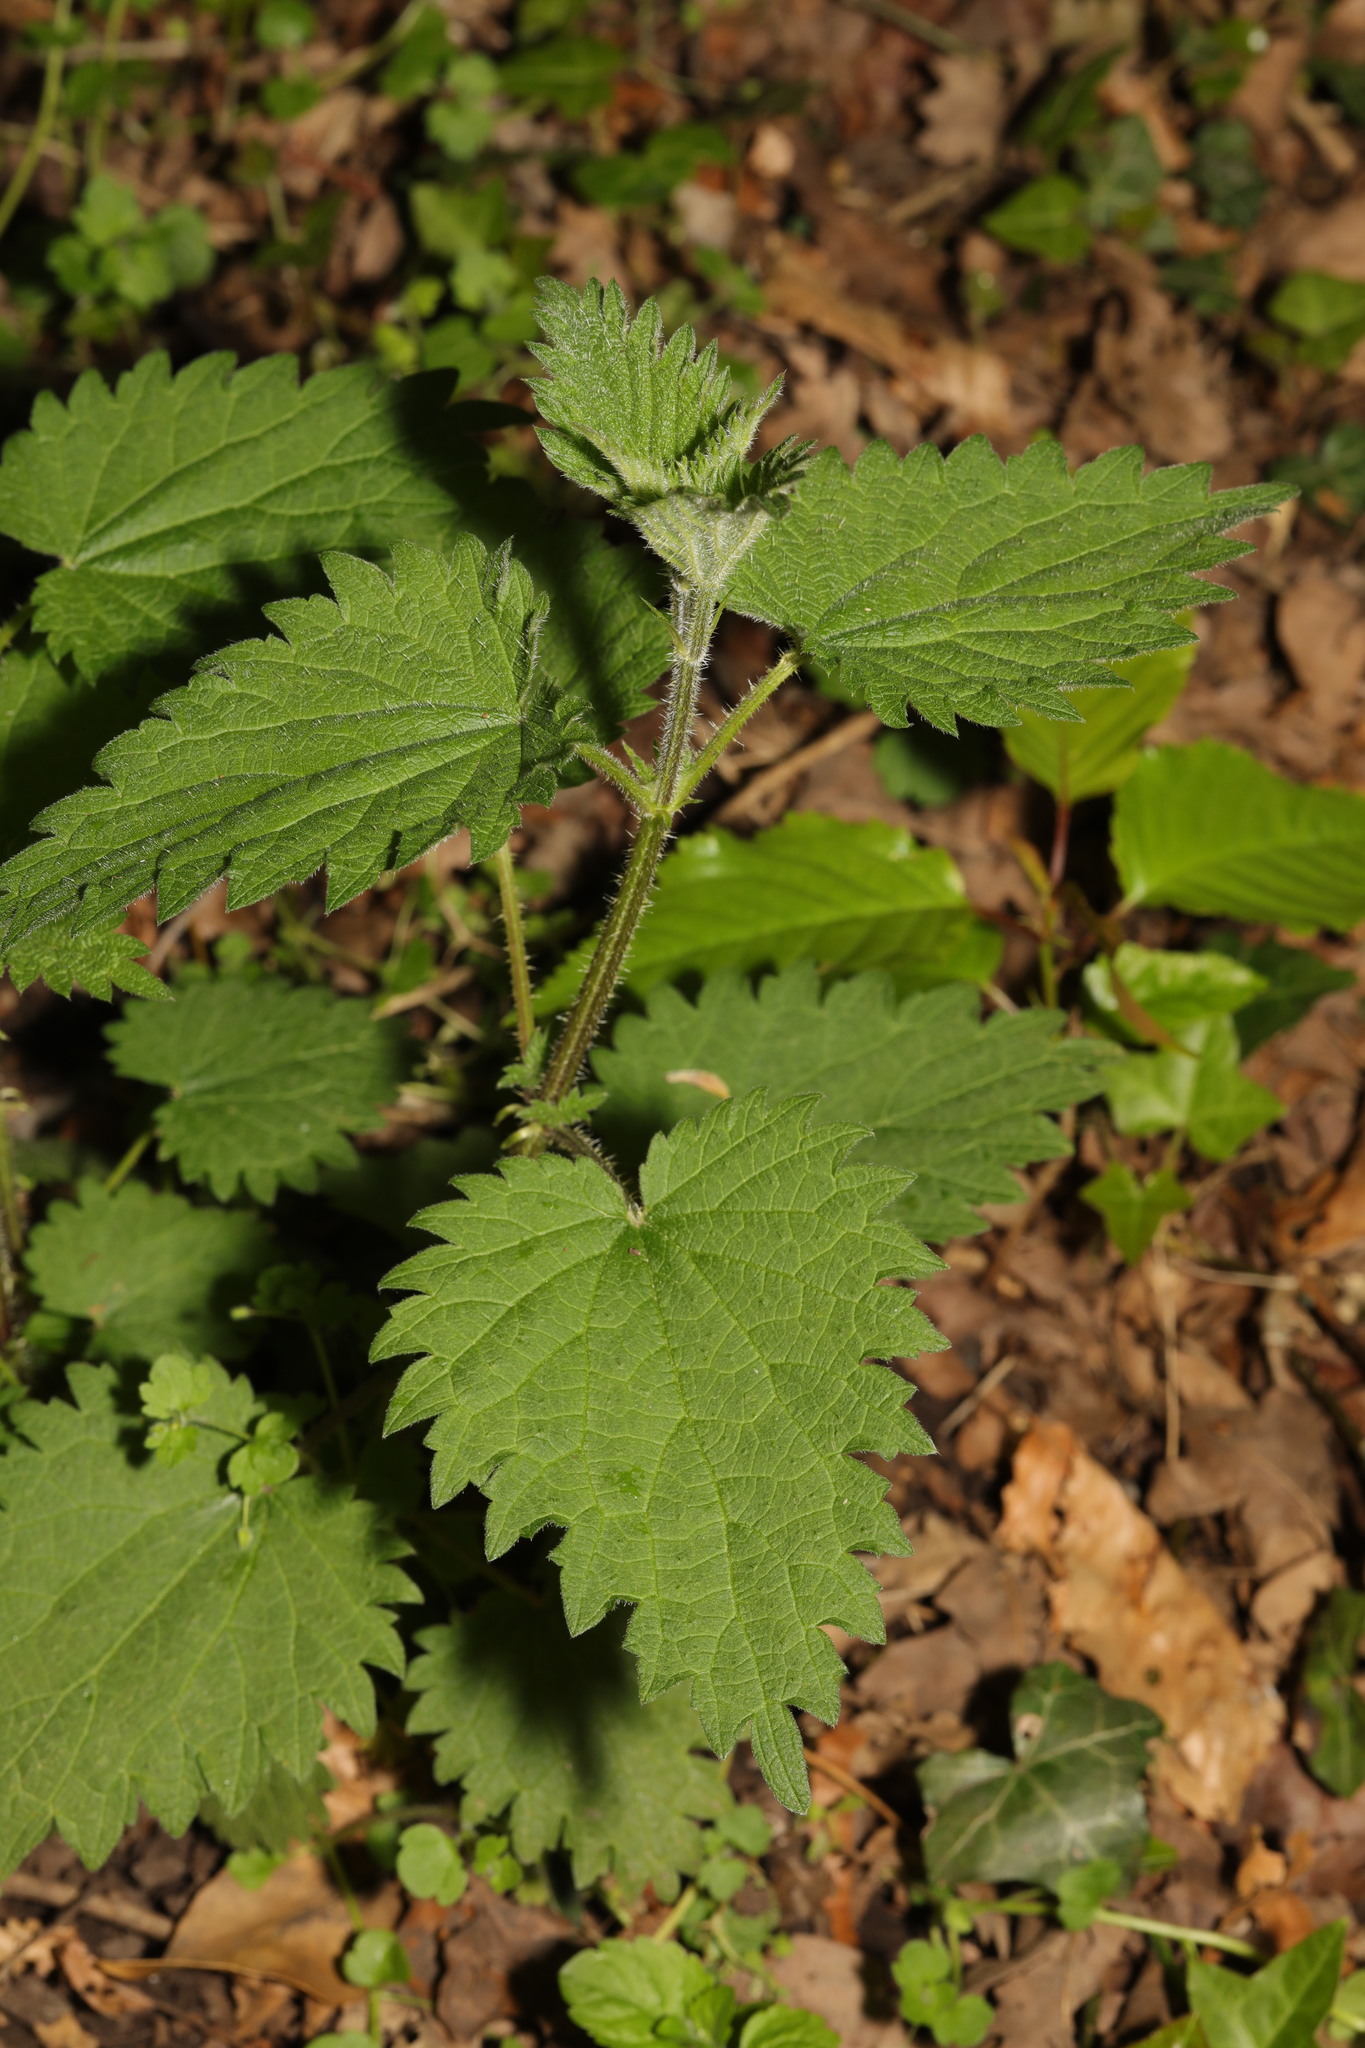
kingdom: Plantae
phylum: Tracheophyta
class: Magnoliopsida
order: Rosales
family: Urticaceae
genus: Urtica
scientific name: Urtica dioica
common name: Common nettle
